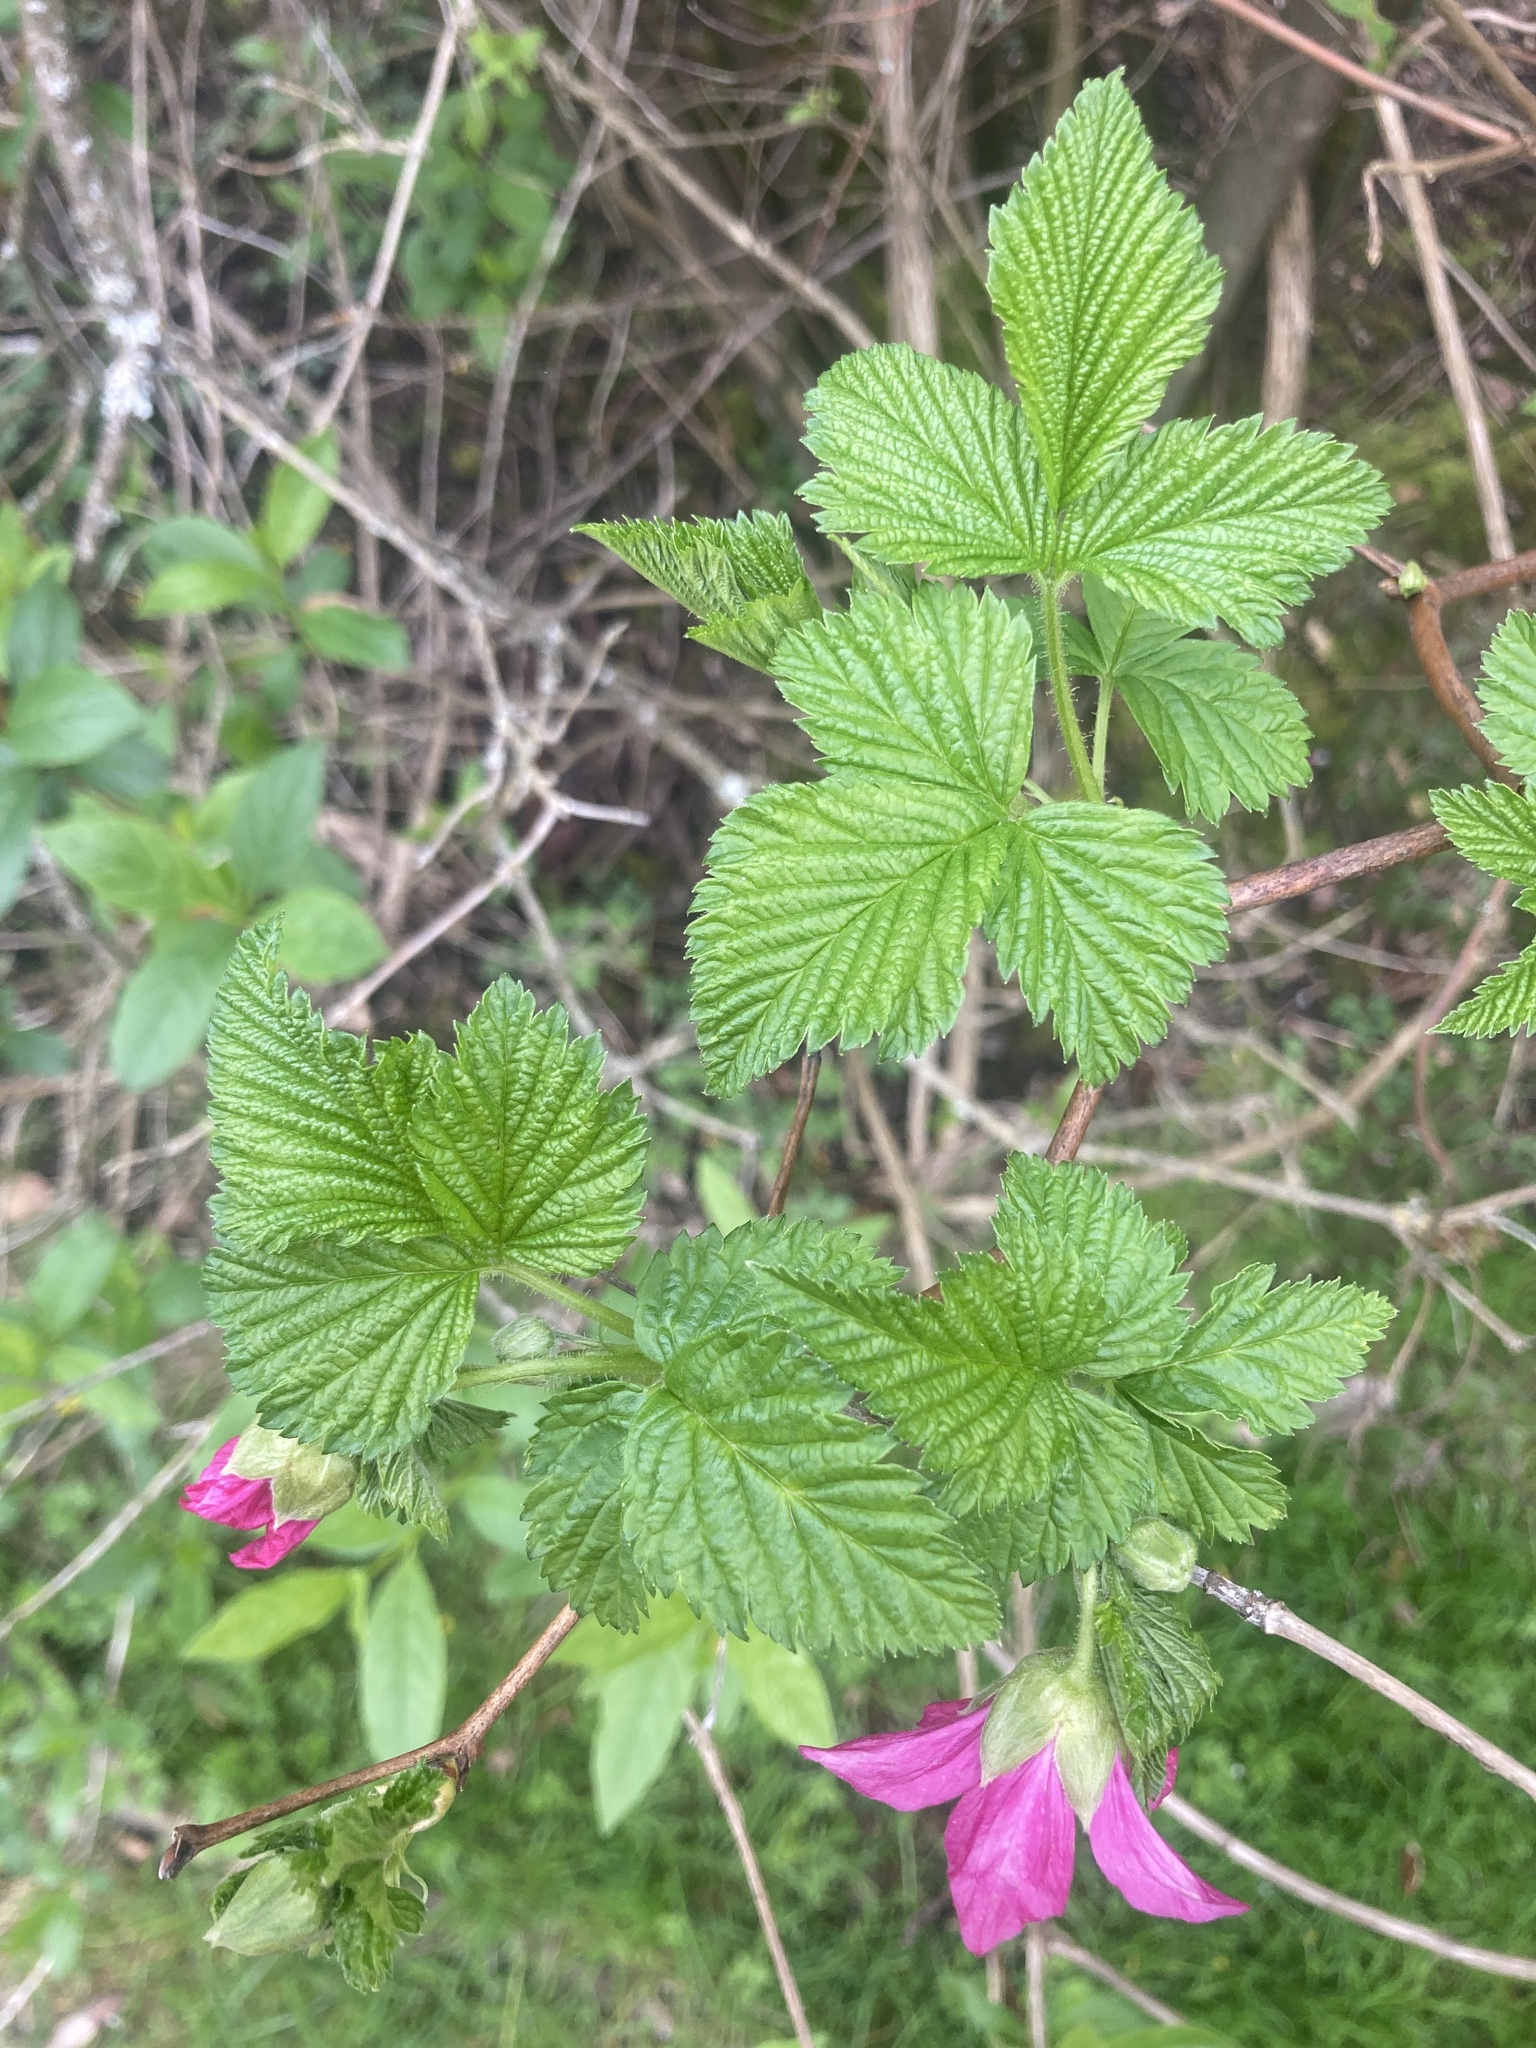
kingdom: Plantae
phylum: Tracheophyta
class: Magnoliopsida
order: Rosales
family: Rosaceae
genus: Rubus
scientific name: Rubus spectabilis
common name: Salmonberry
